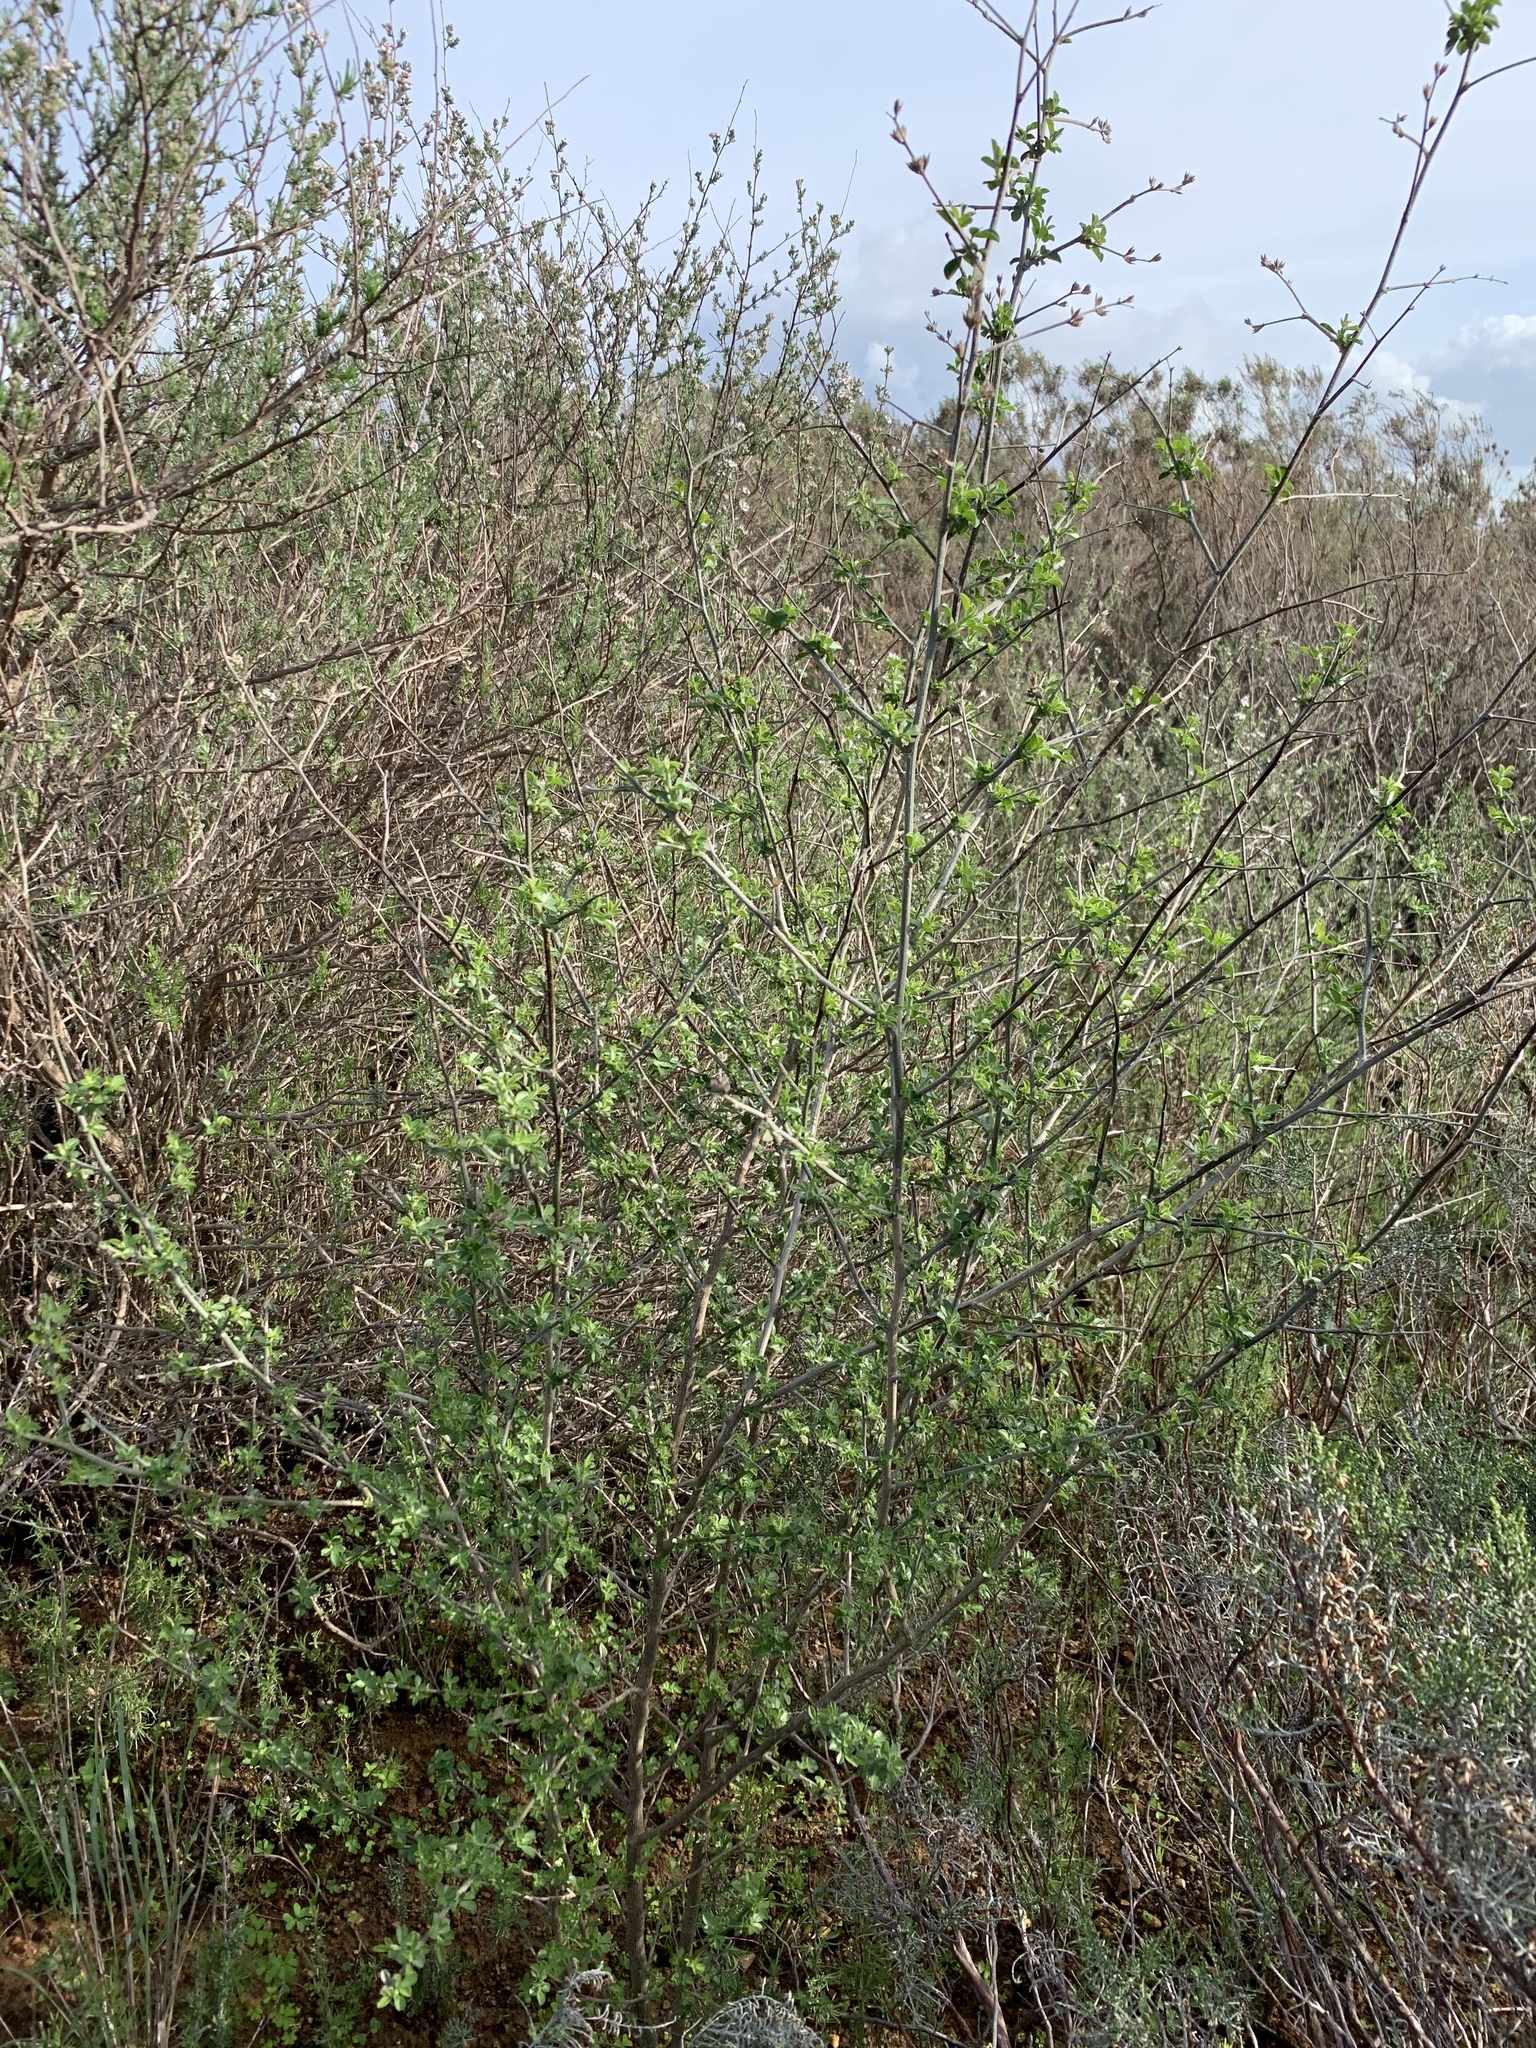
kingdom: Plantae
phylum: Tracheophyta
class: Magnoliopsida
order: Fabales
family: Fabaceae
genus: Psoralea
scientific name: Psoralea hirta
